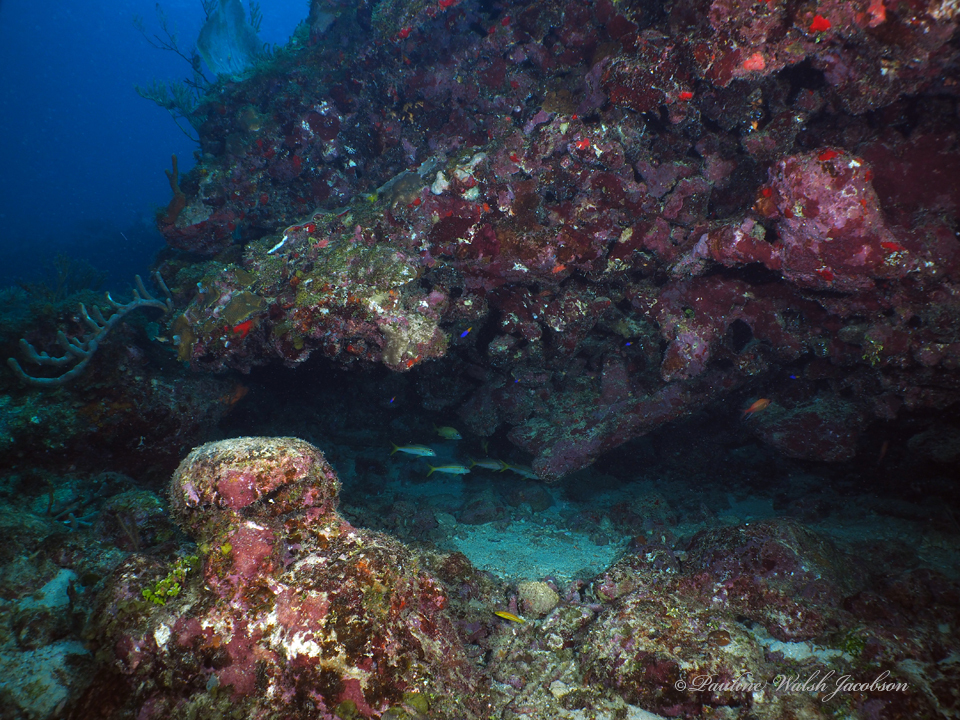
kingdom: Animalia
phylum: Chordata
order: Perciformes
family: Mullidae
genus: Mulloidichthys
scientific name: Mulloidichthys martinicus
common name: Yellow goatfish
